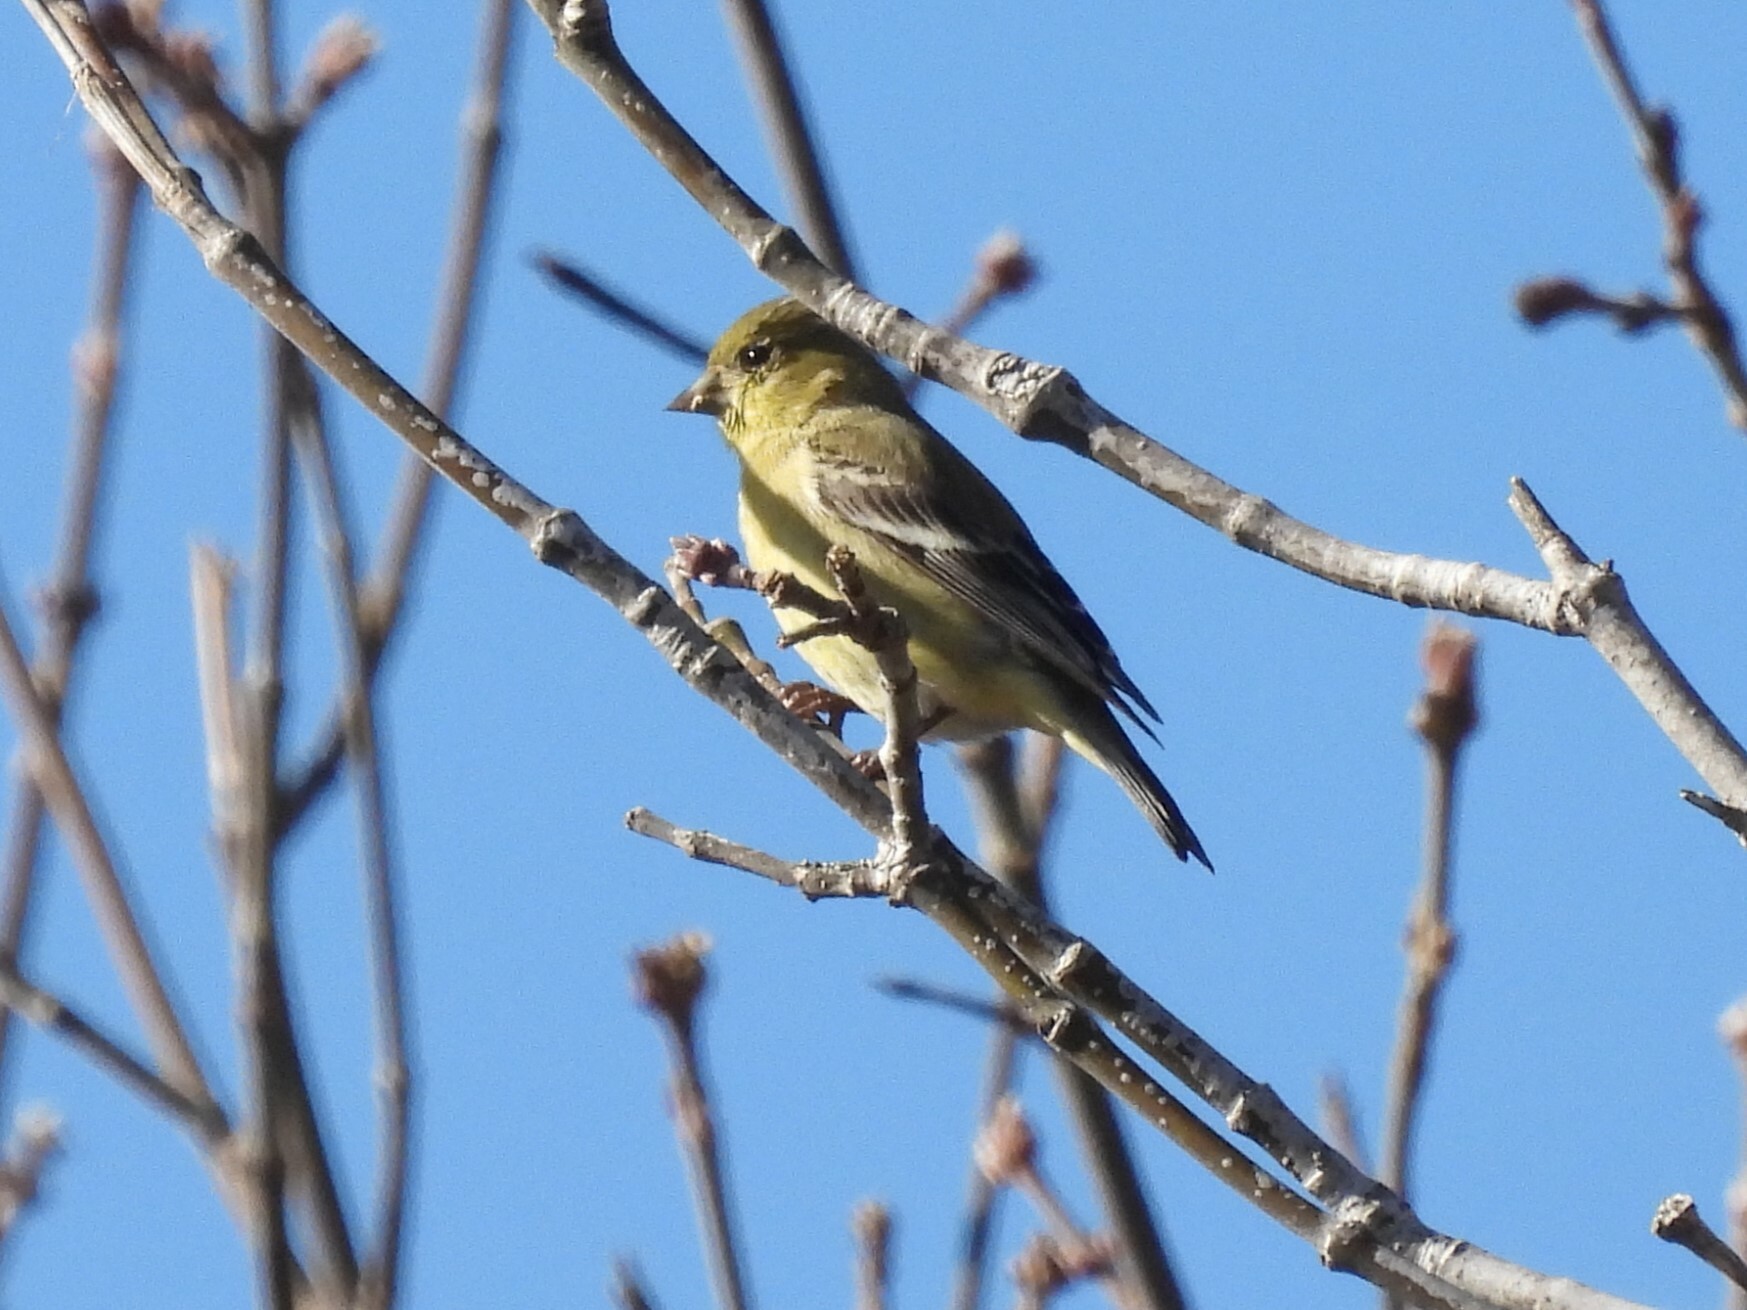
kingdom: Animalia
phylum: Chordata
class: Aves
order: Passeriformes
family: Fringillidae
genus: Spinus
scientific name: Spinus psaltria
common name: Lesser goldfinch
